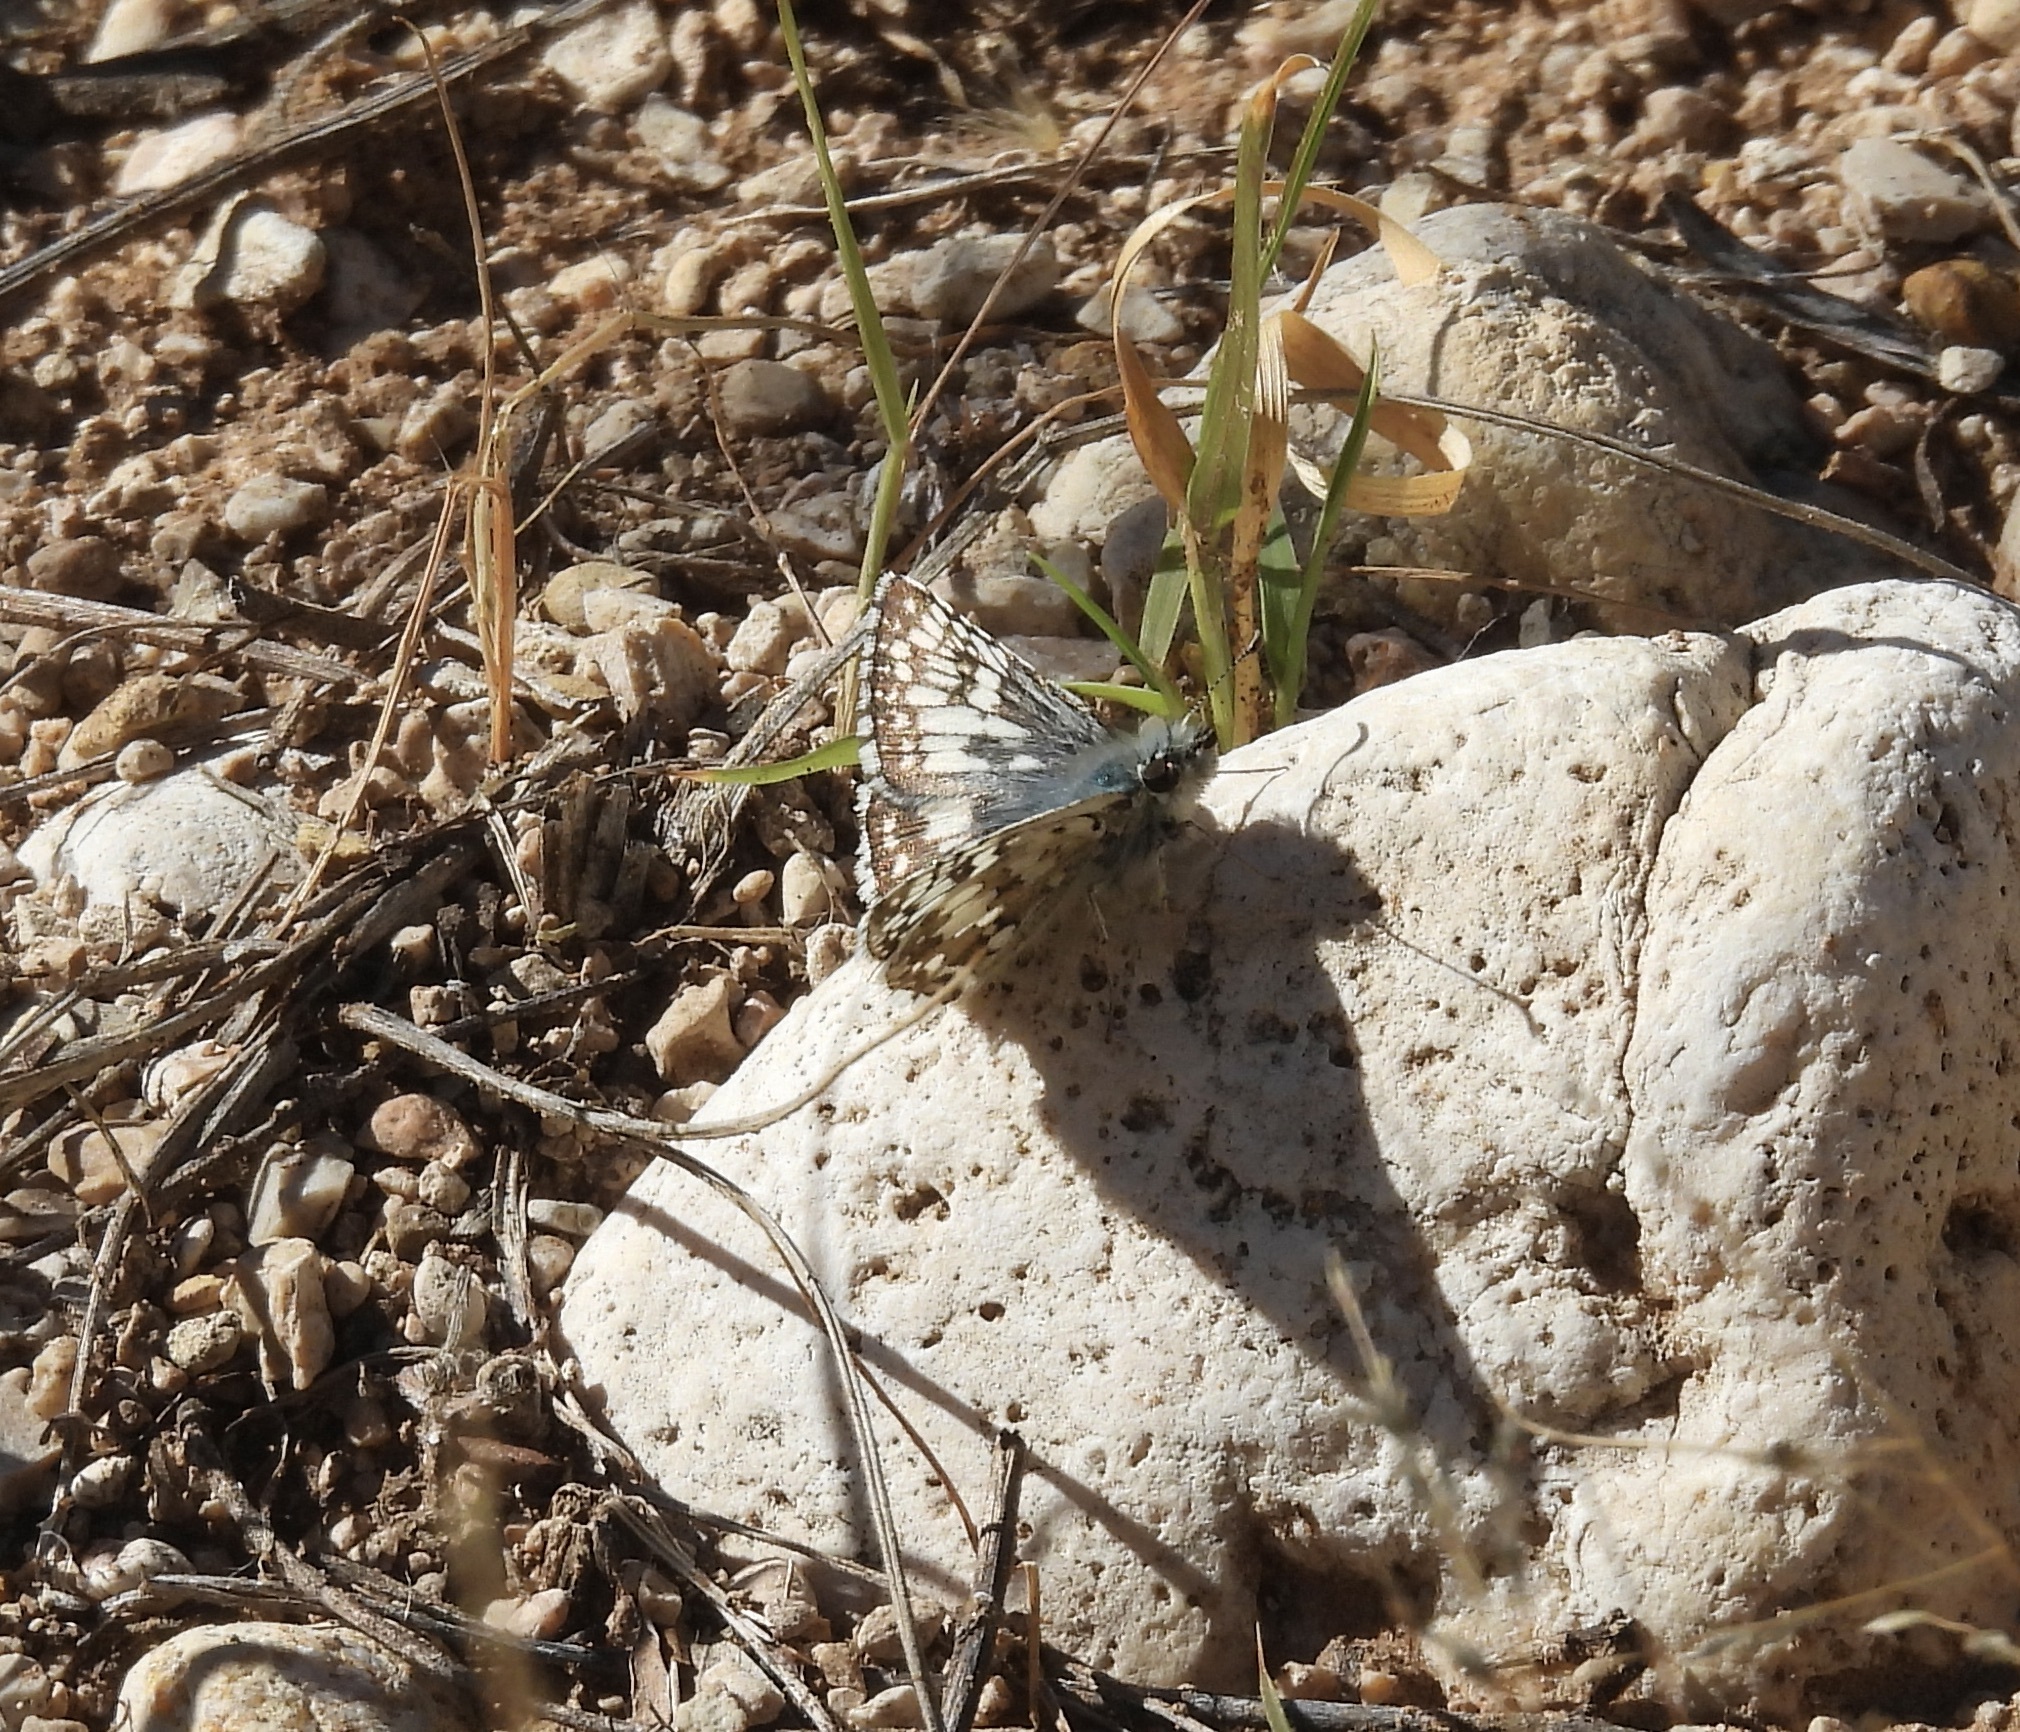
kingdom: Animalia
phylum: Arthropoda
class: Insecta
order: Lepidoptera
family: Hesperiidae
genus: Burnsius
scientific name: Burnsius
